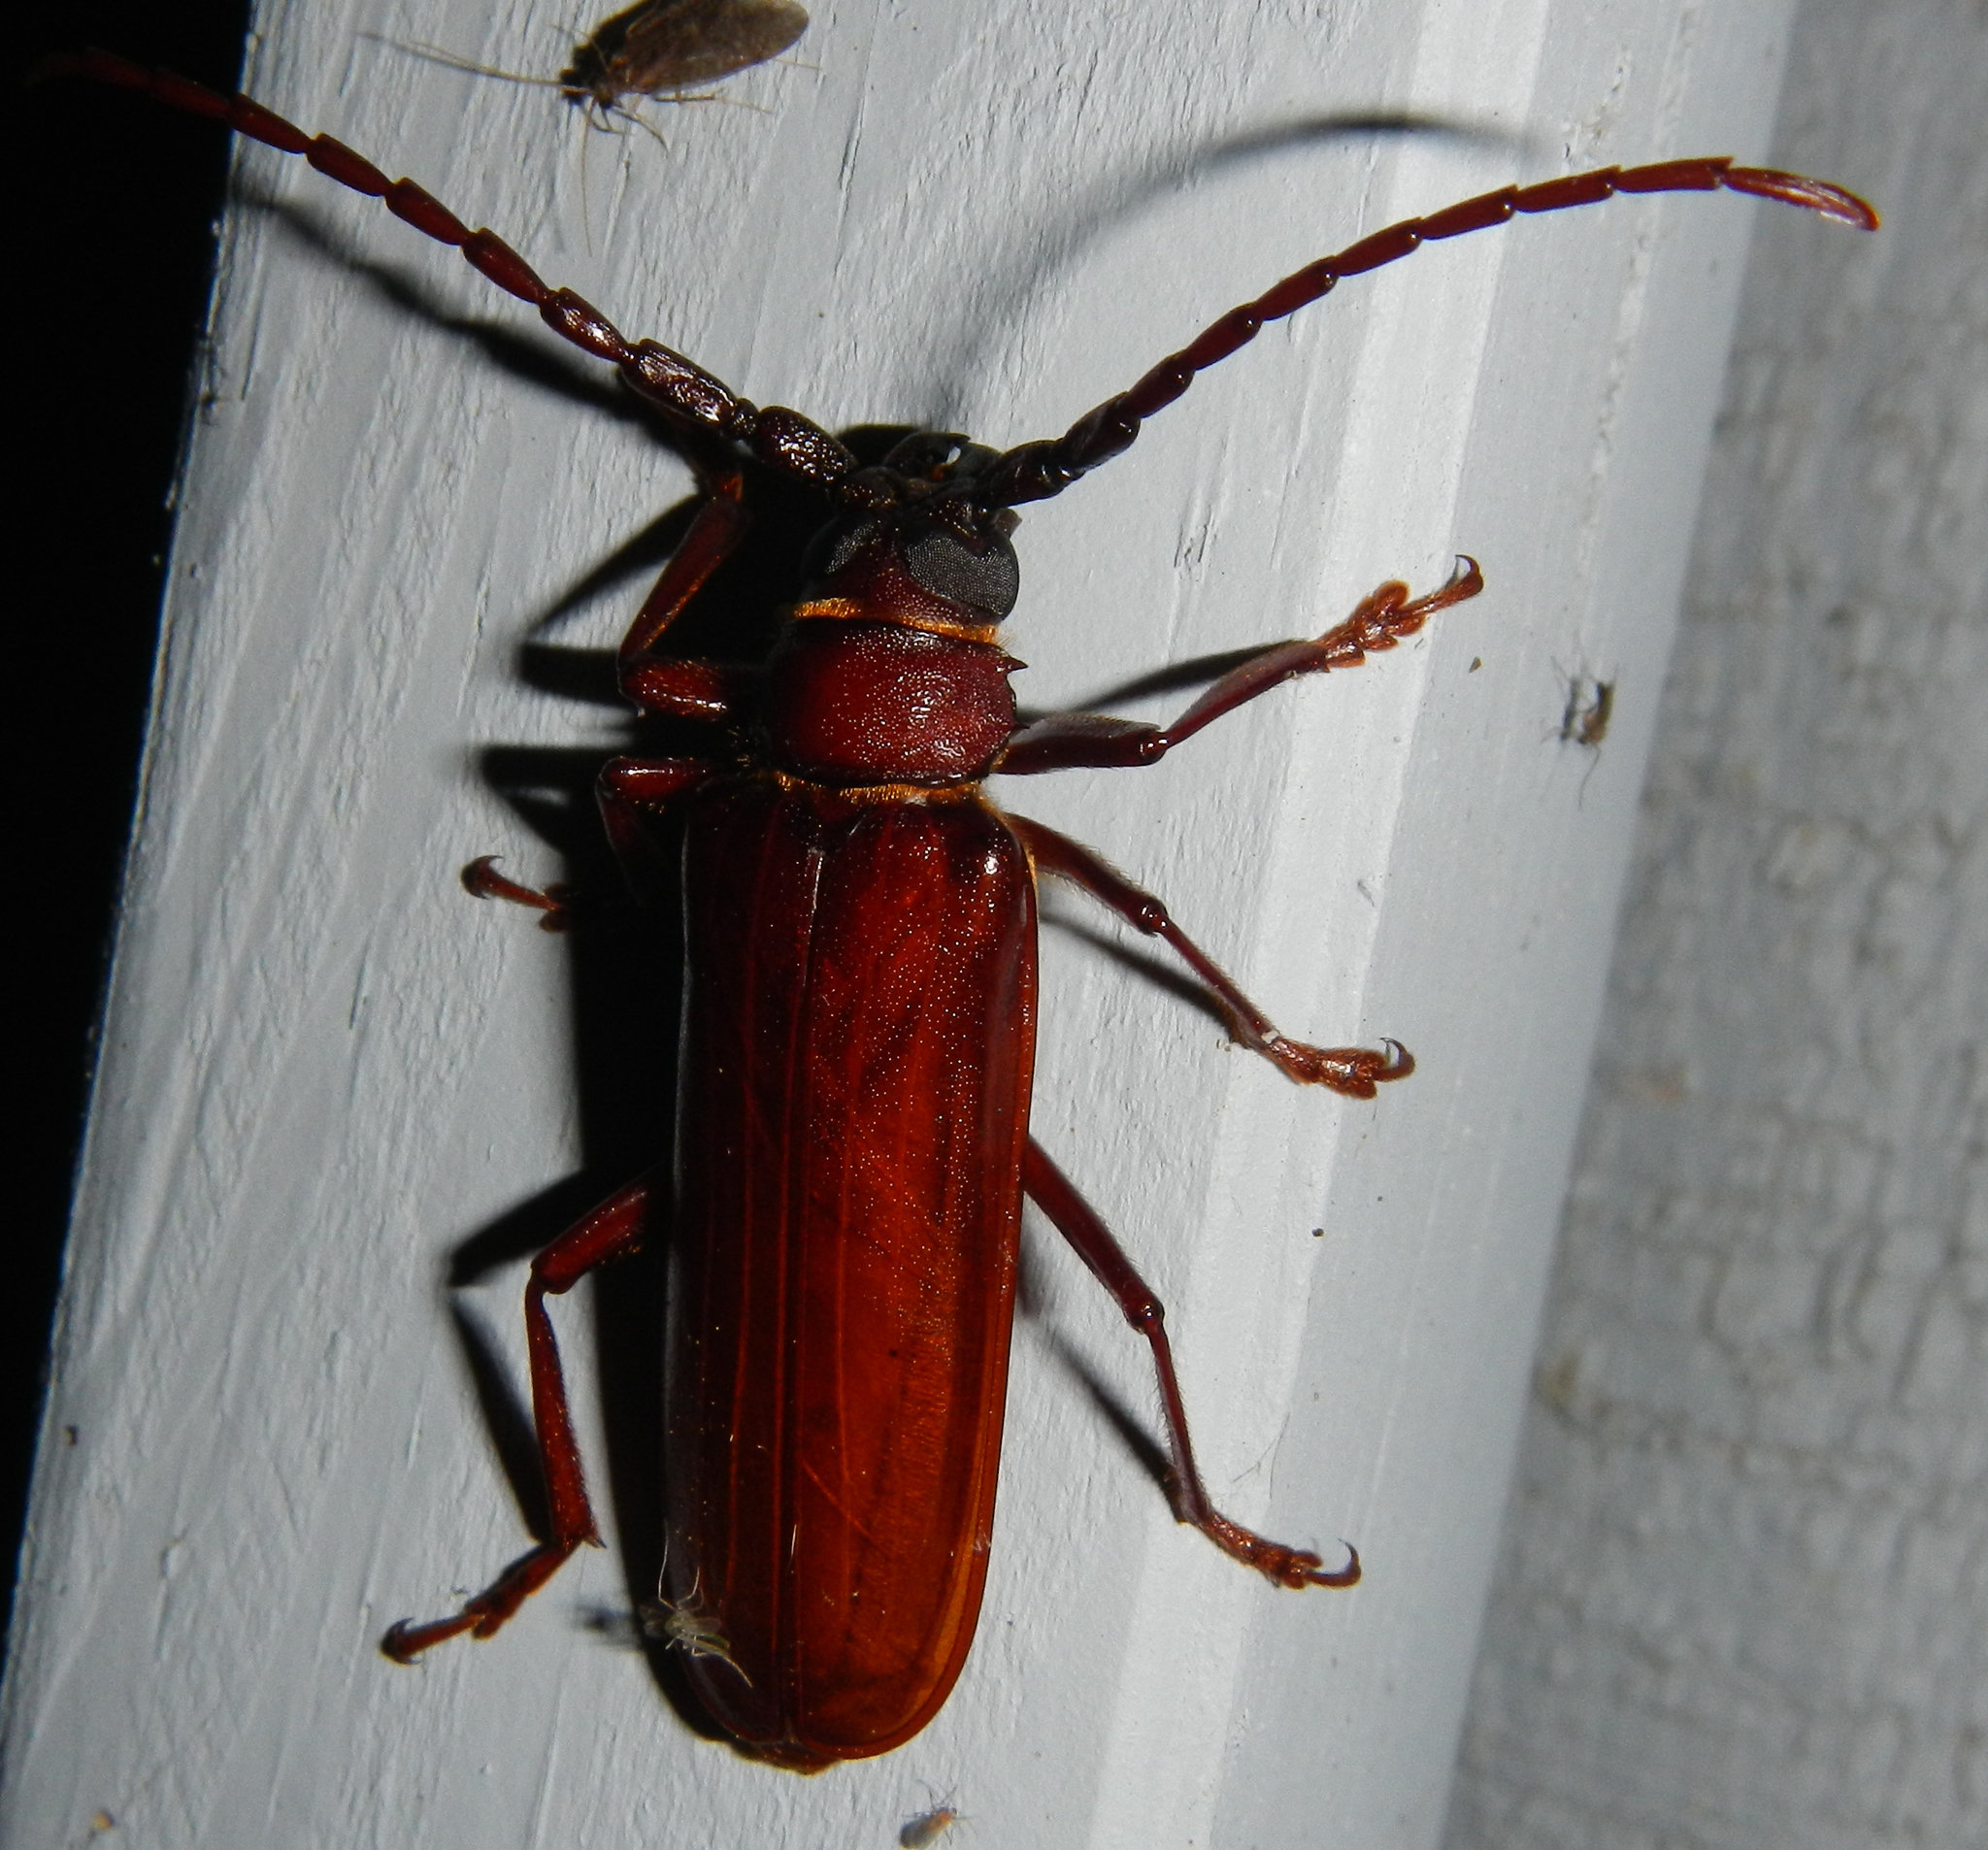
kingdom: Animalia
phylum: Arthropoda
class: Insecta
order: Coleoptera
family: Cerambycidae
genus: Orthosoma
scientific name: Orthosoma brunneum
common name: Brown prionid beetle
